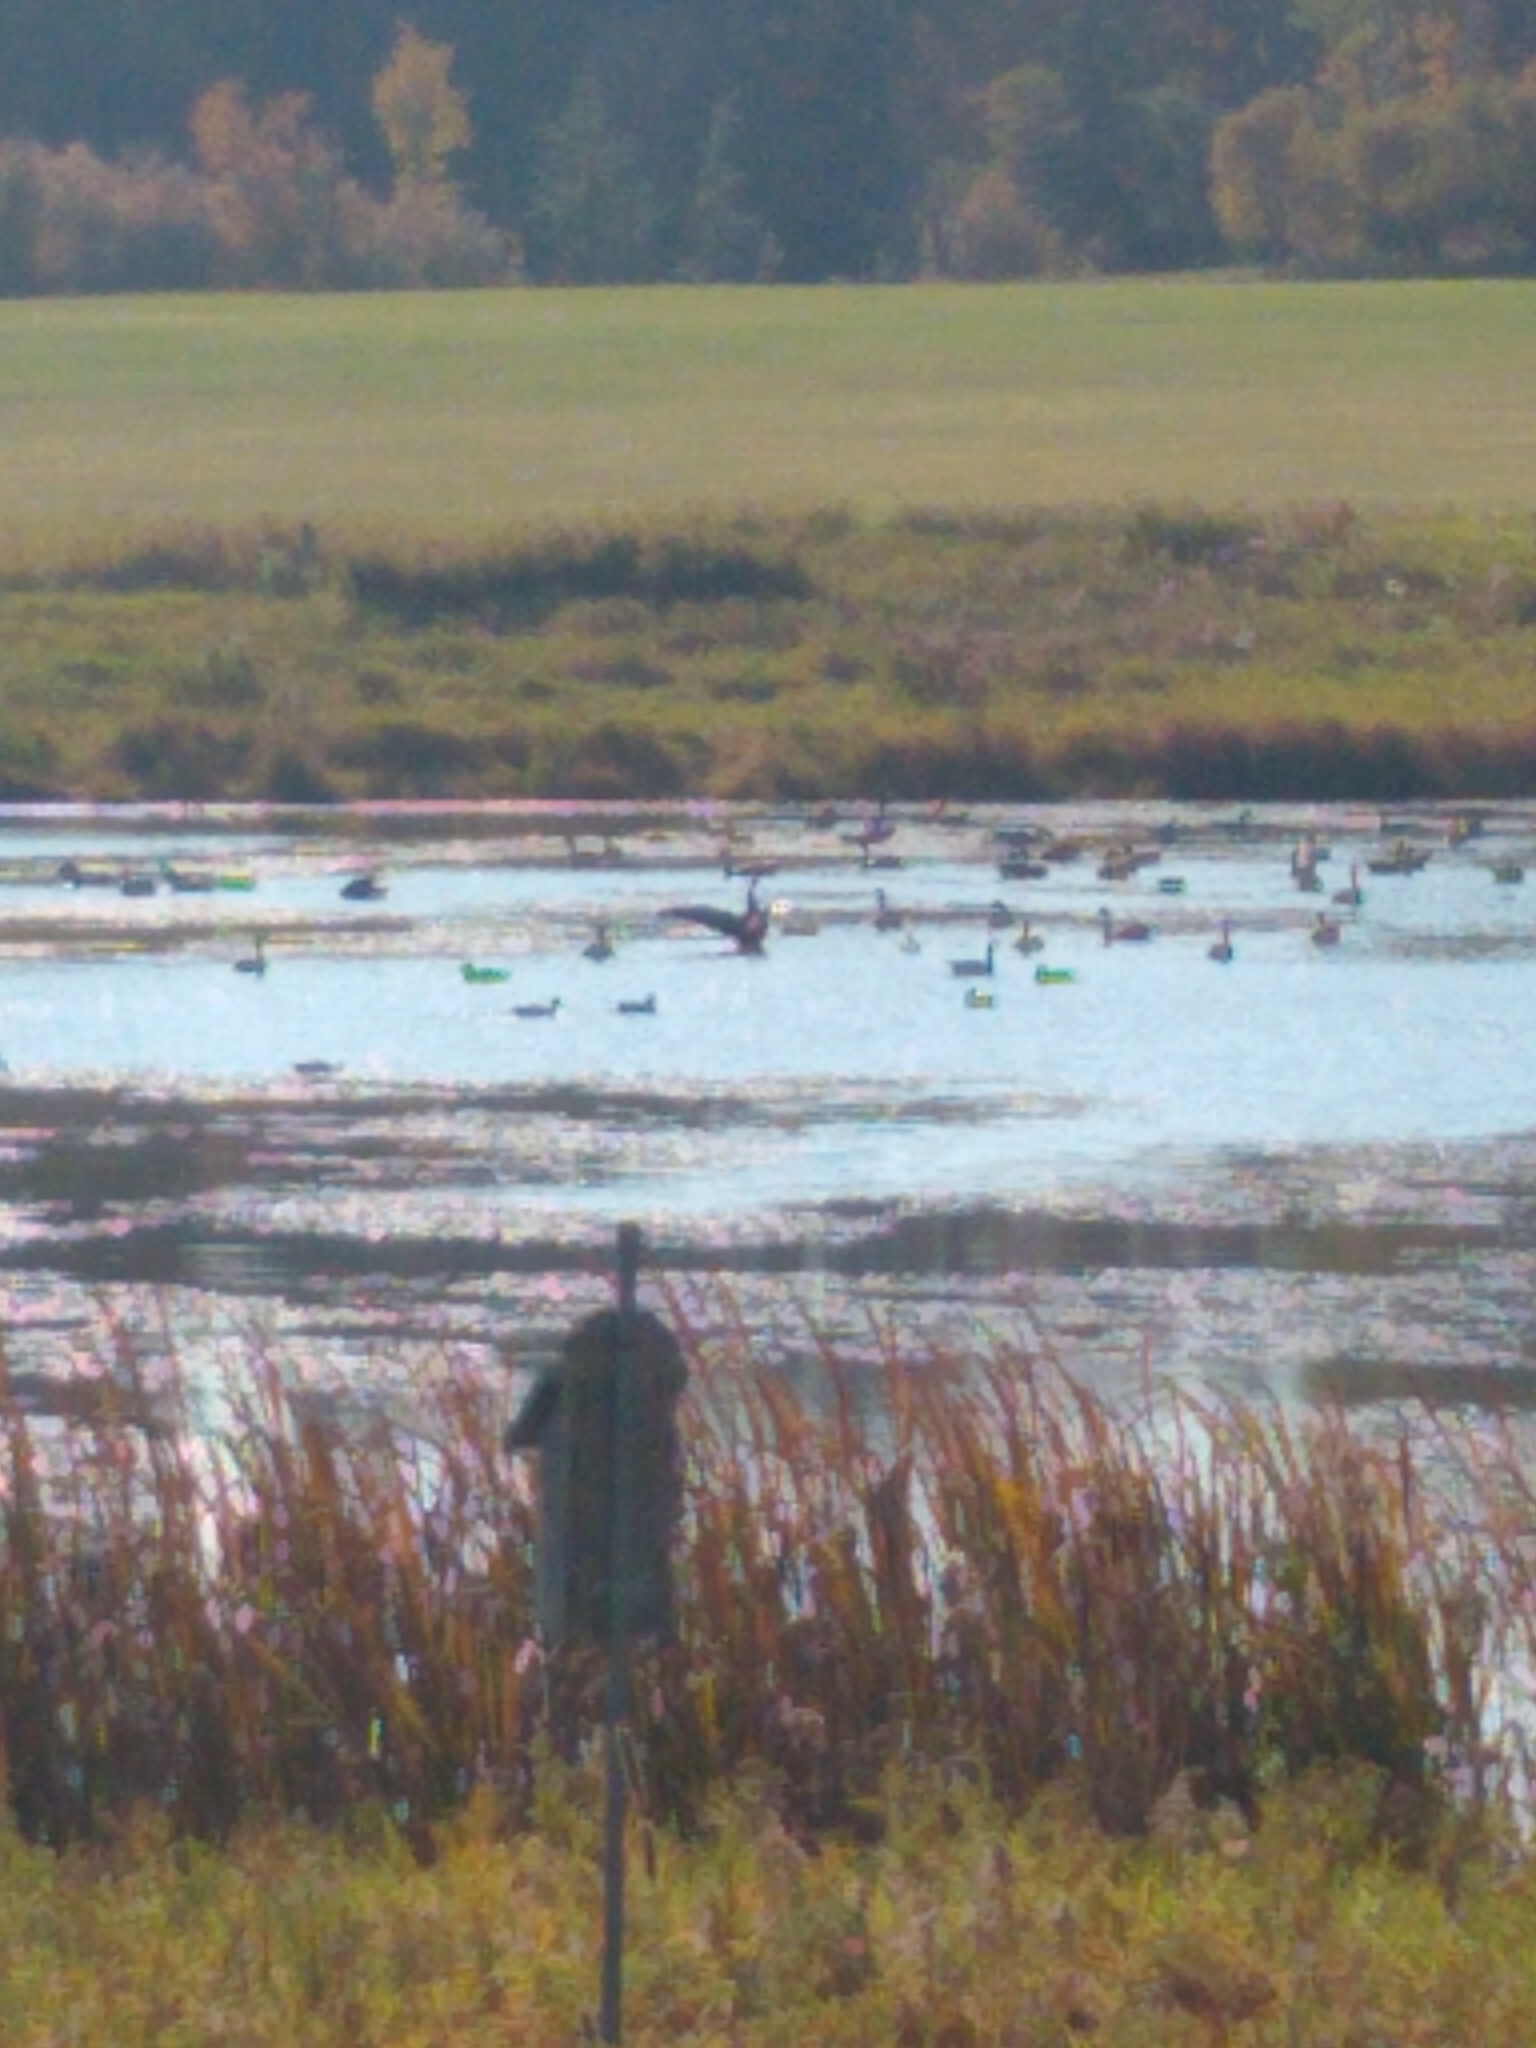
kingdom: Animalia
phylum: Chordata
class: Aves
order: Anseriformes
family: Anatidae
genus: Branta
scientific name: Branta canadensis
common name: Canada goose
